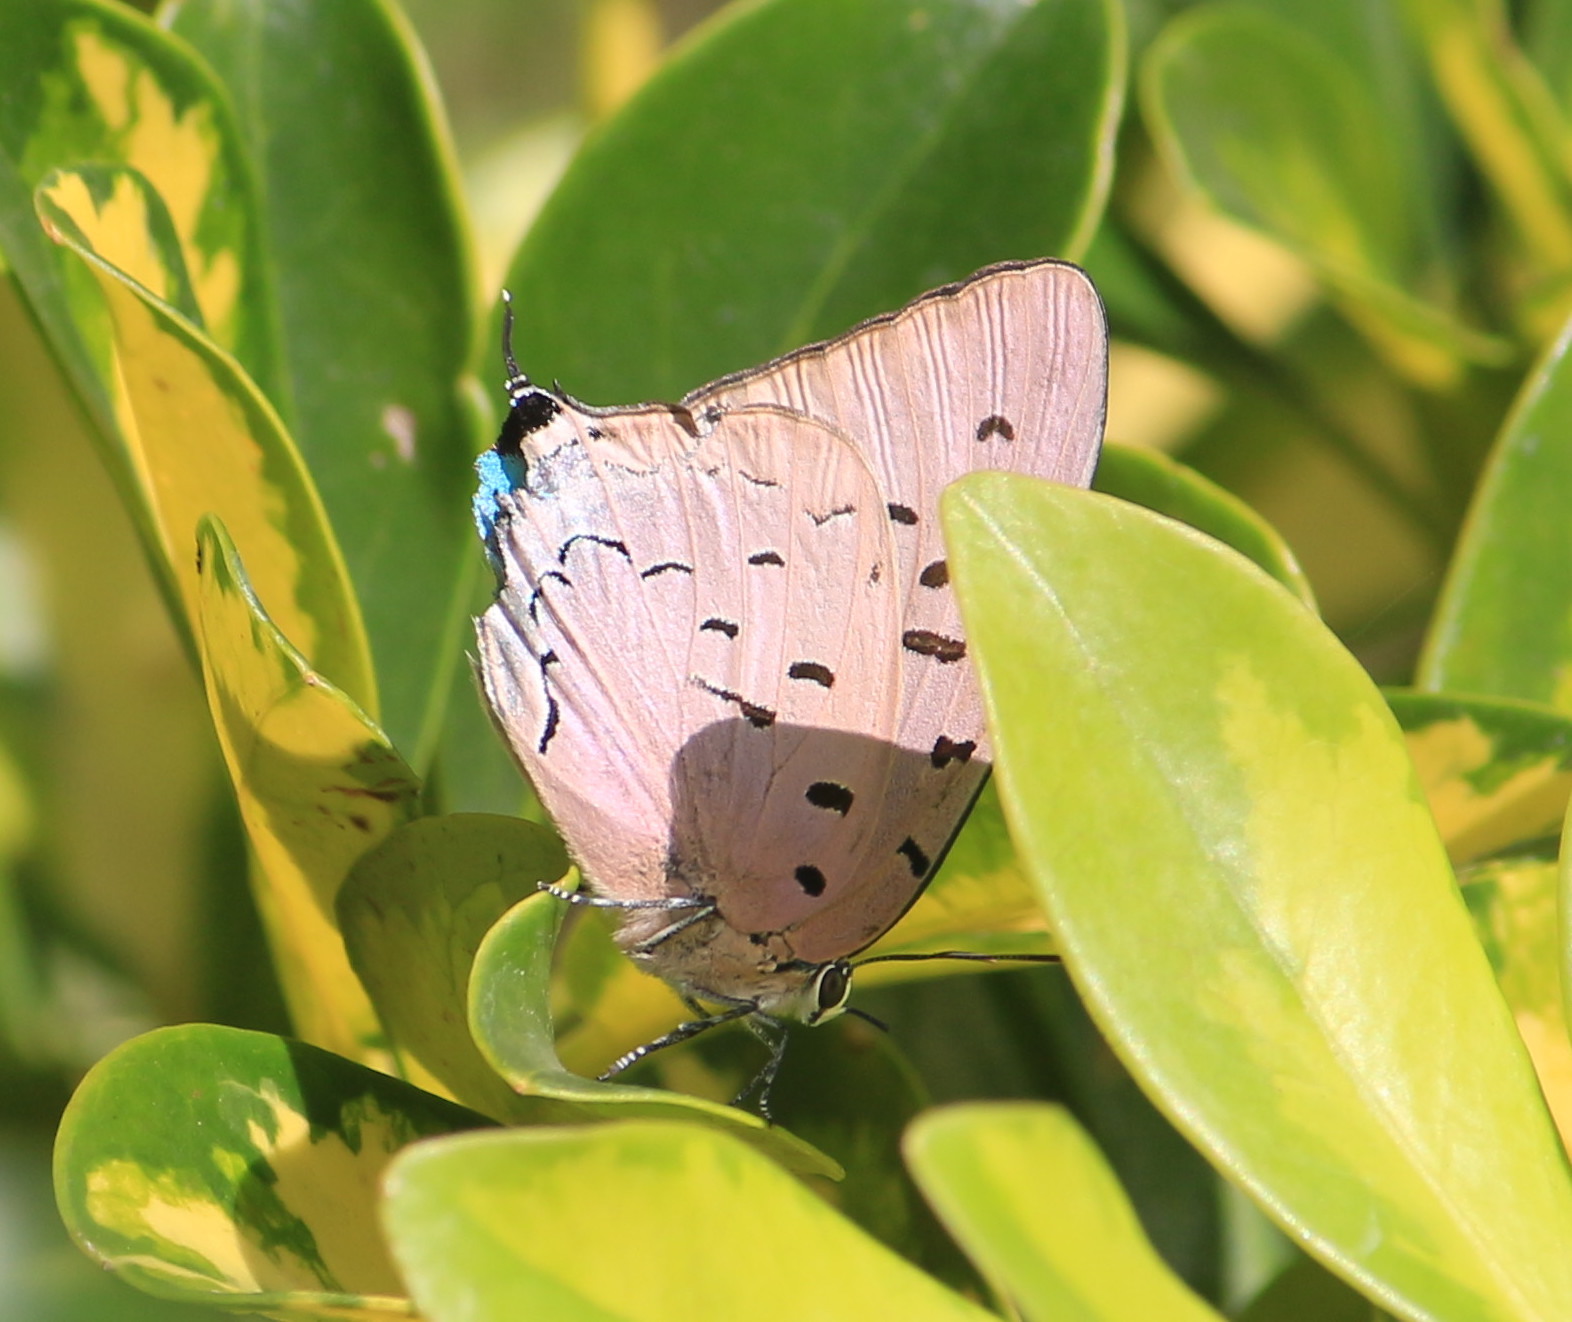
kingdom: Animalia
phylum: Arthropoda
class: Insecta
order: Lepidoptera
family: Lycaenidae
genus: Pseudolycaena
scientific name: Pseudolycaena damo
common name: Sky-blue hairstreak
